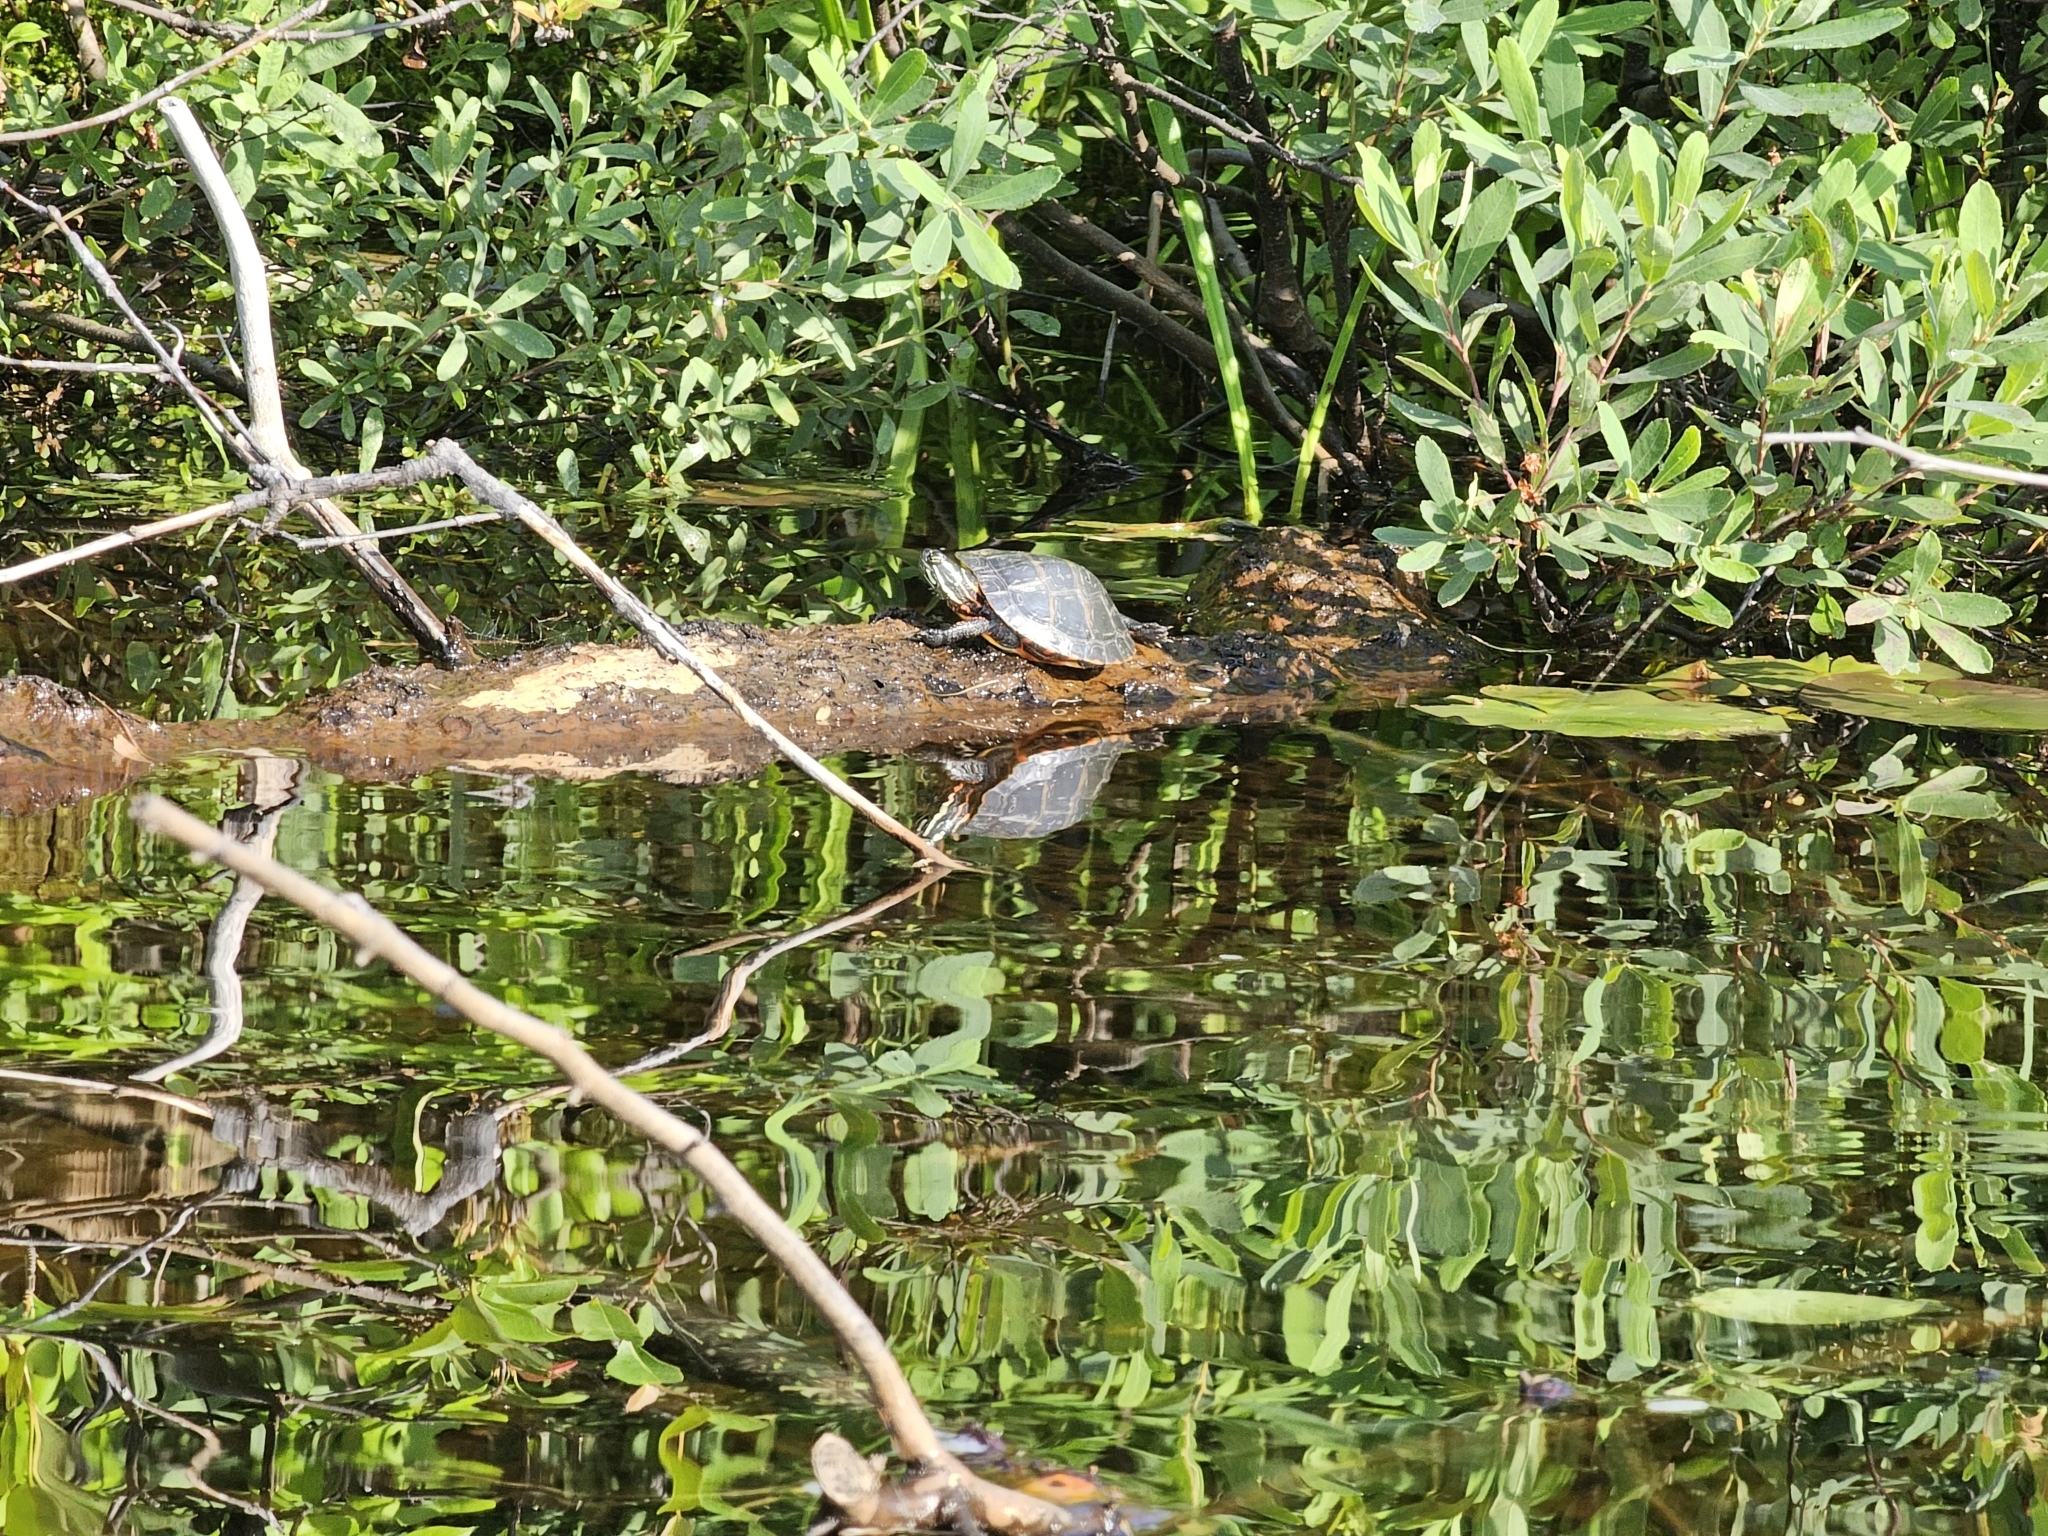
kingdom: Animalia
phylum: Chordata
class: Testudines
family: Emydidae
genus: Chrysemys
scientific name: Chrysemys picta
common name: Painted turtle
